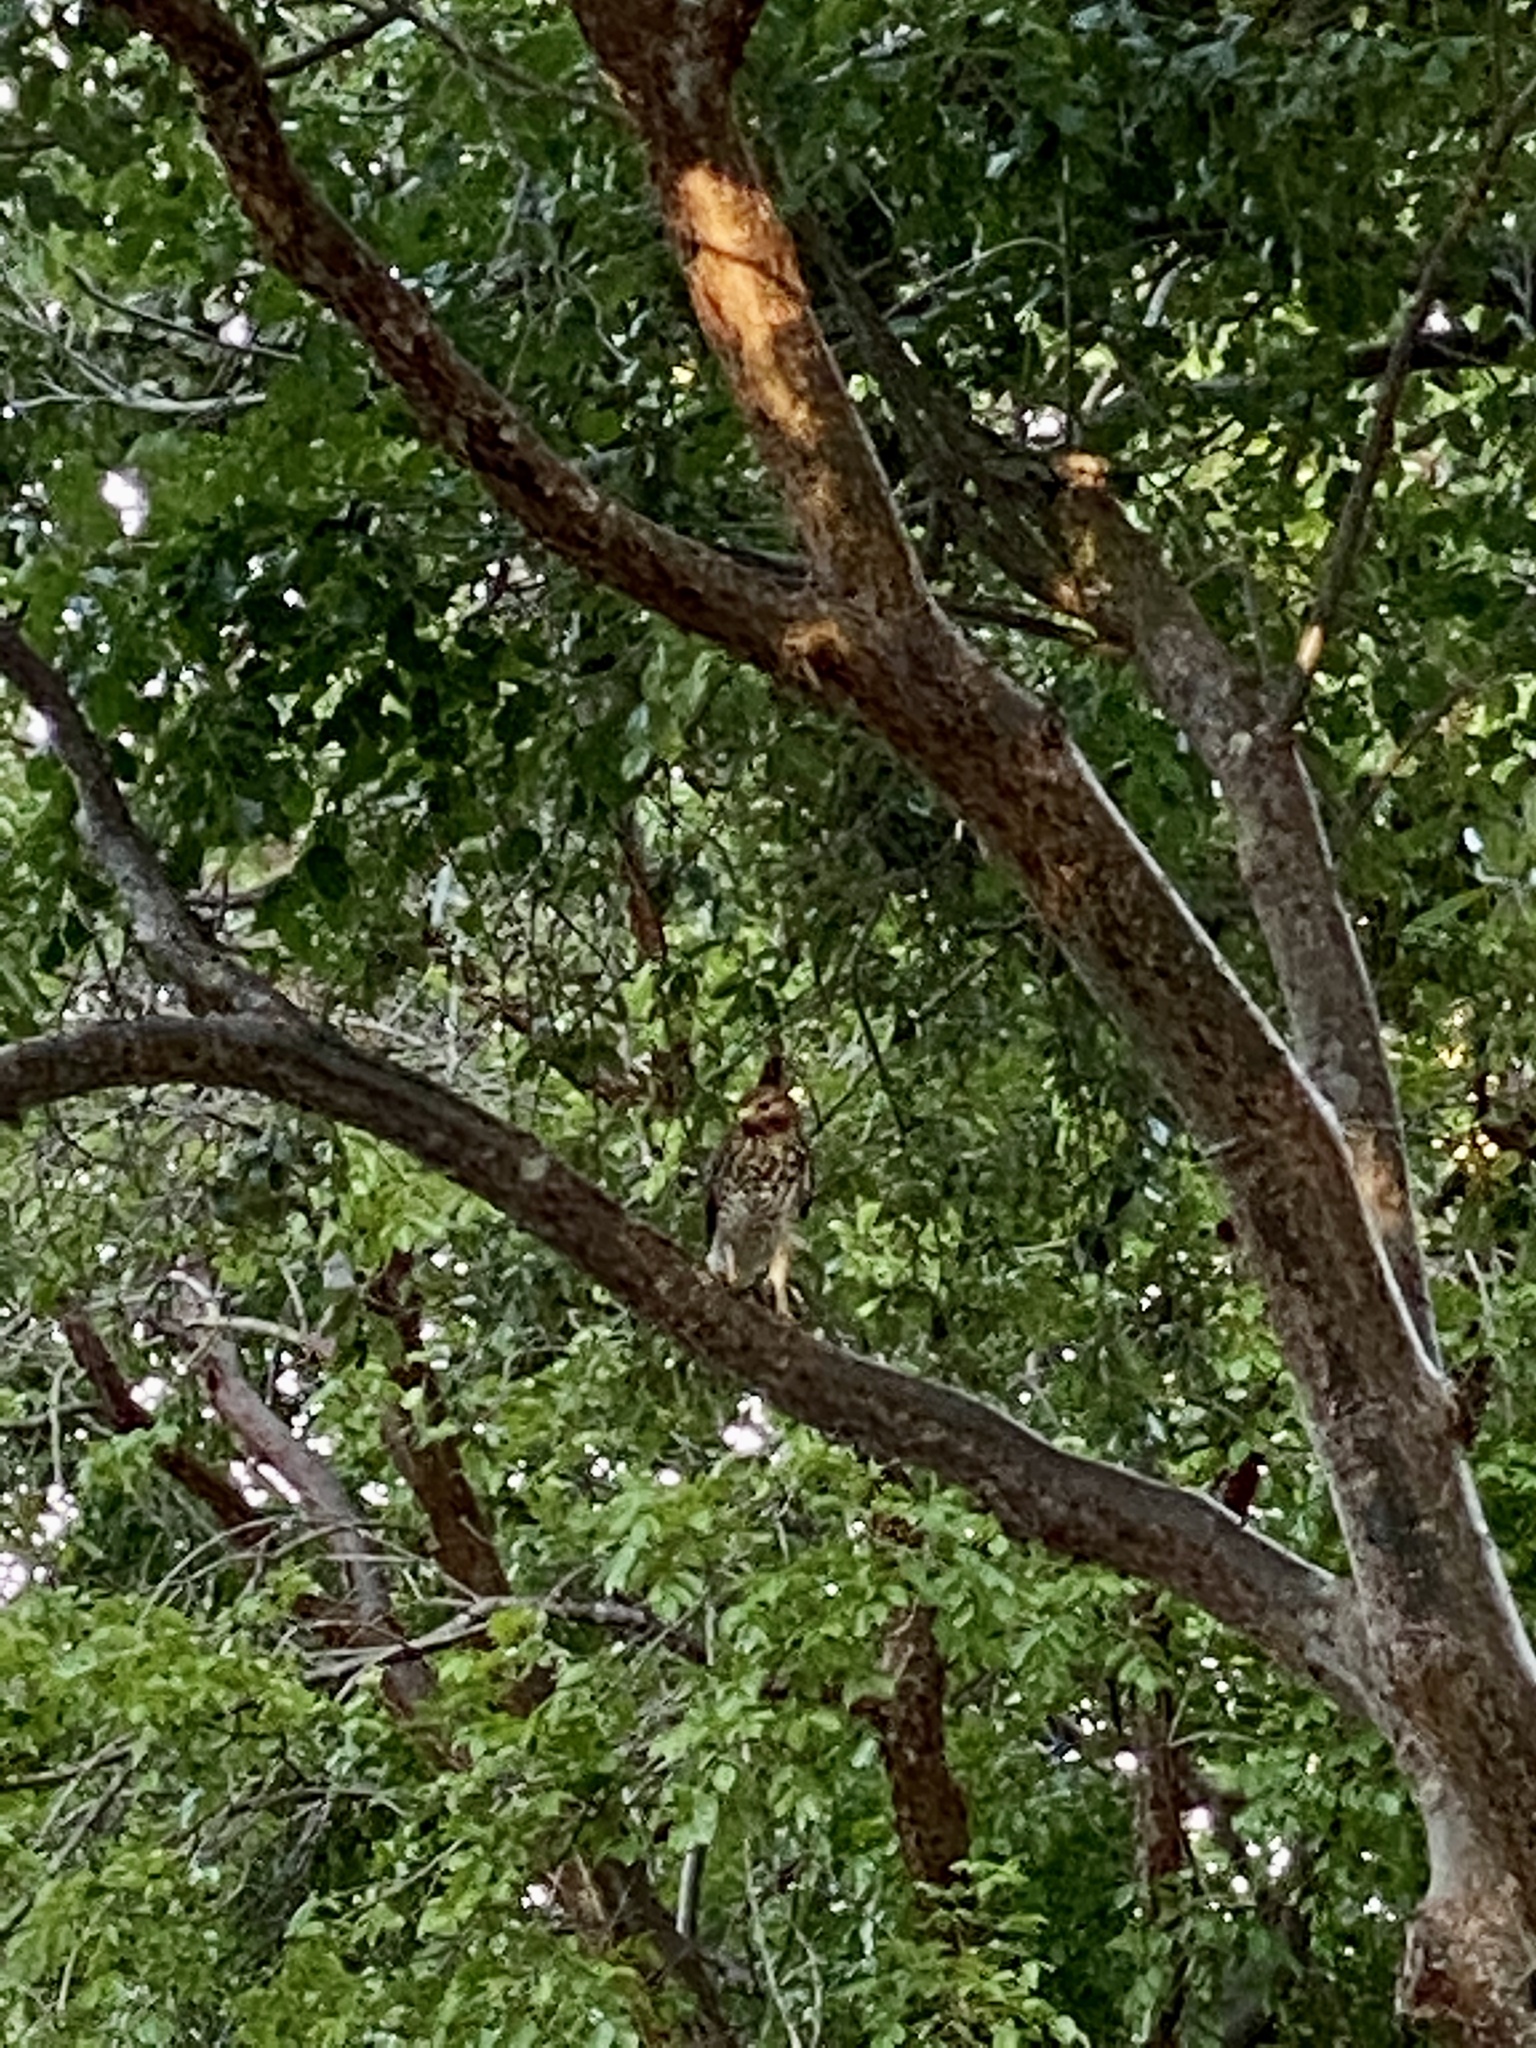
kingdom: Animalia
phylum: Chordata
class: Aves
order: Accipitriformes
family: Accipitridae
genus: Buteo
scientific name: Buteo lineatus
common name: Red-shouldered hawk
